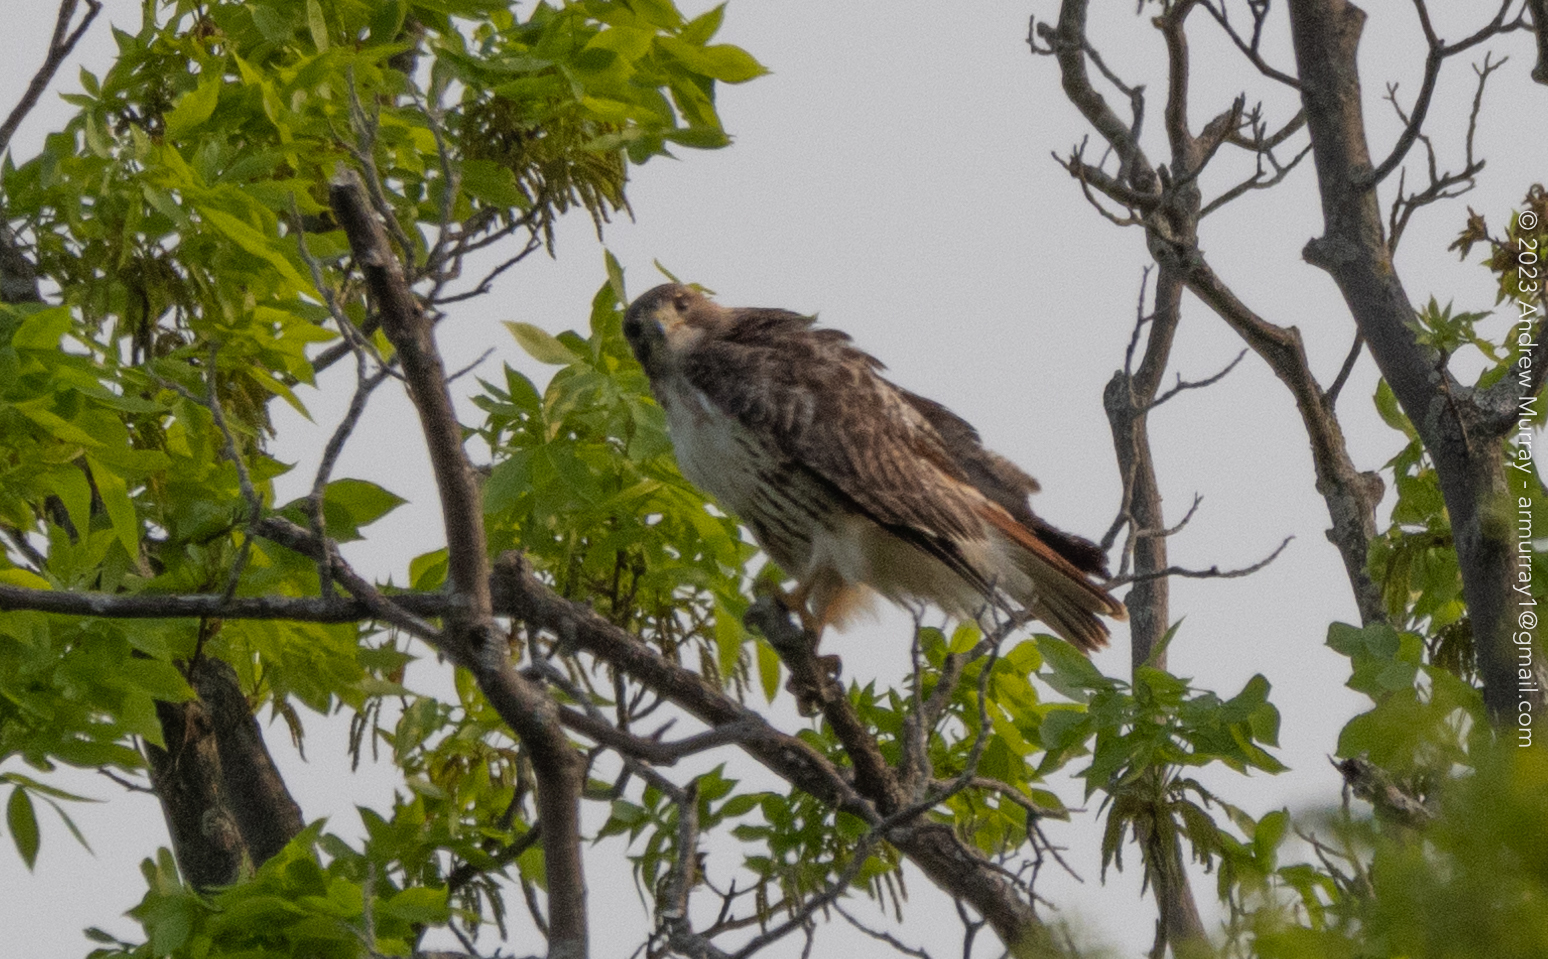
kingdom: Animalia
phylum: Chordata
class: Aves
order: Accipitriformes
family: Accipitridae
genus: Buteo
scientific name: Buteo jamaicensis
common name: Red-tailed hawk
